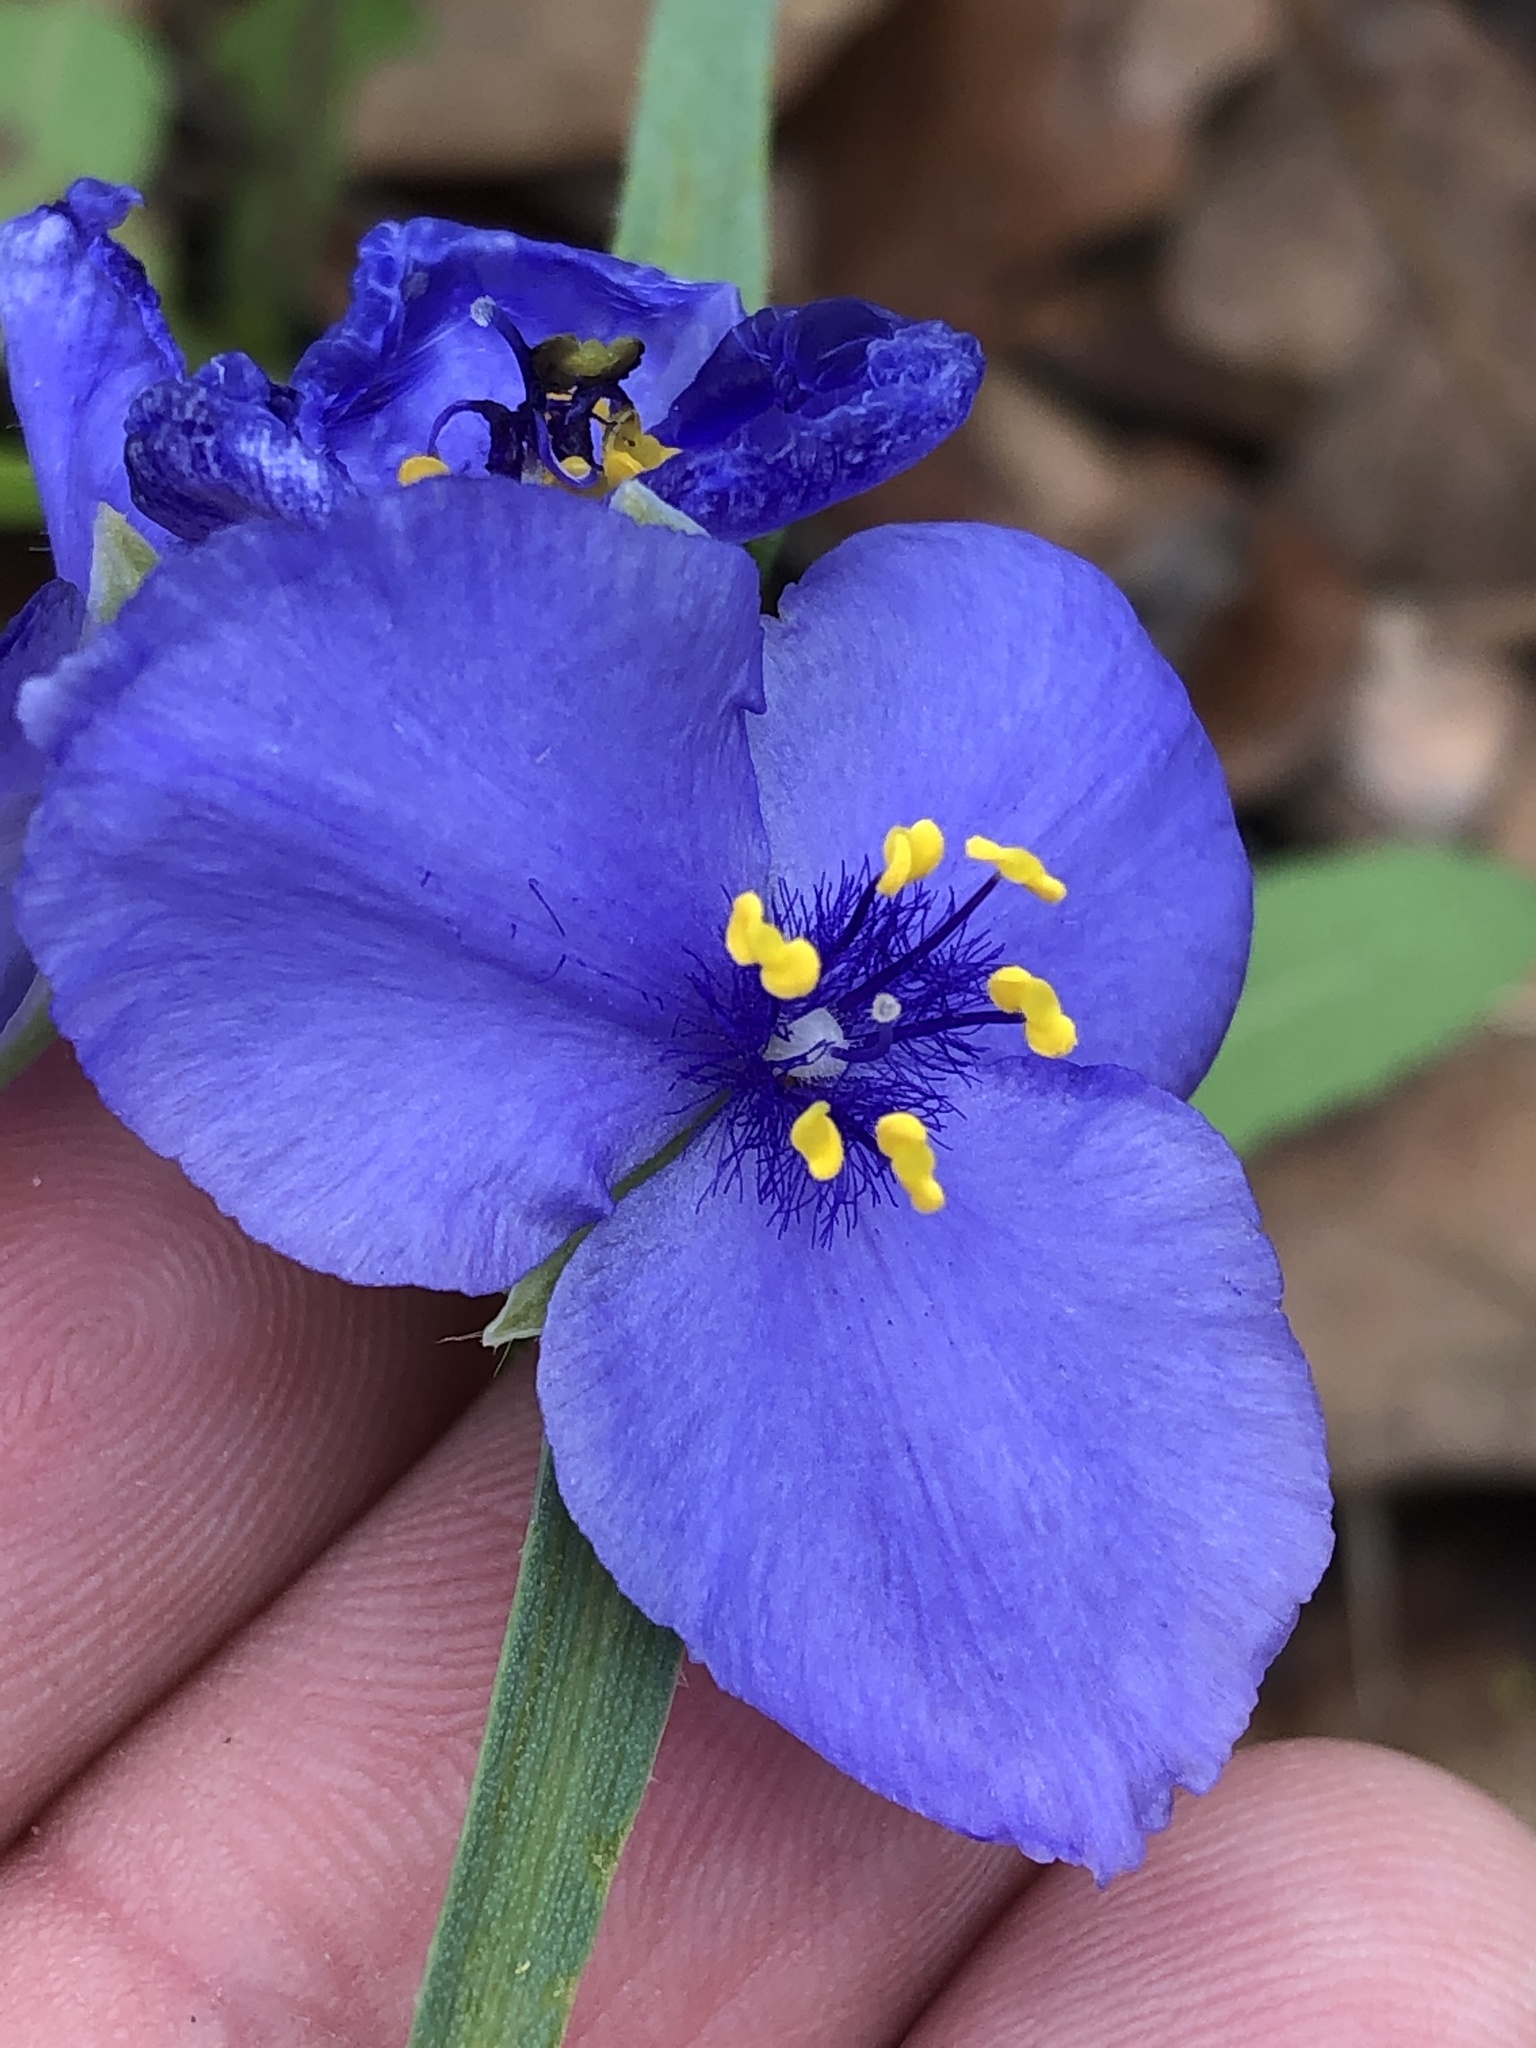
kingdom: Plantae
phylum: Tracheophyta
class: Liliopsida
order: Commelinales
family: Commelinaceae
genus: Tradescantia
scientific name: Tradescantia ohiensis
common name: Ohio spiderwort
